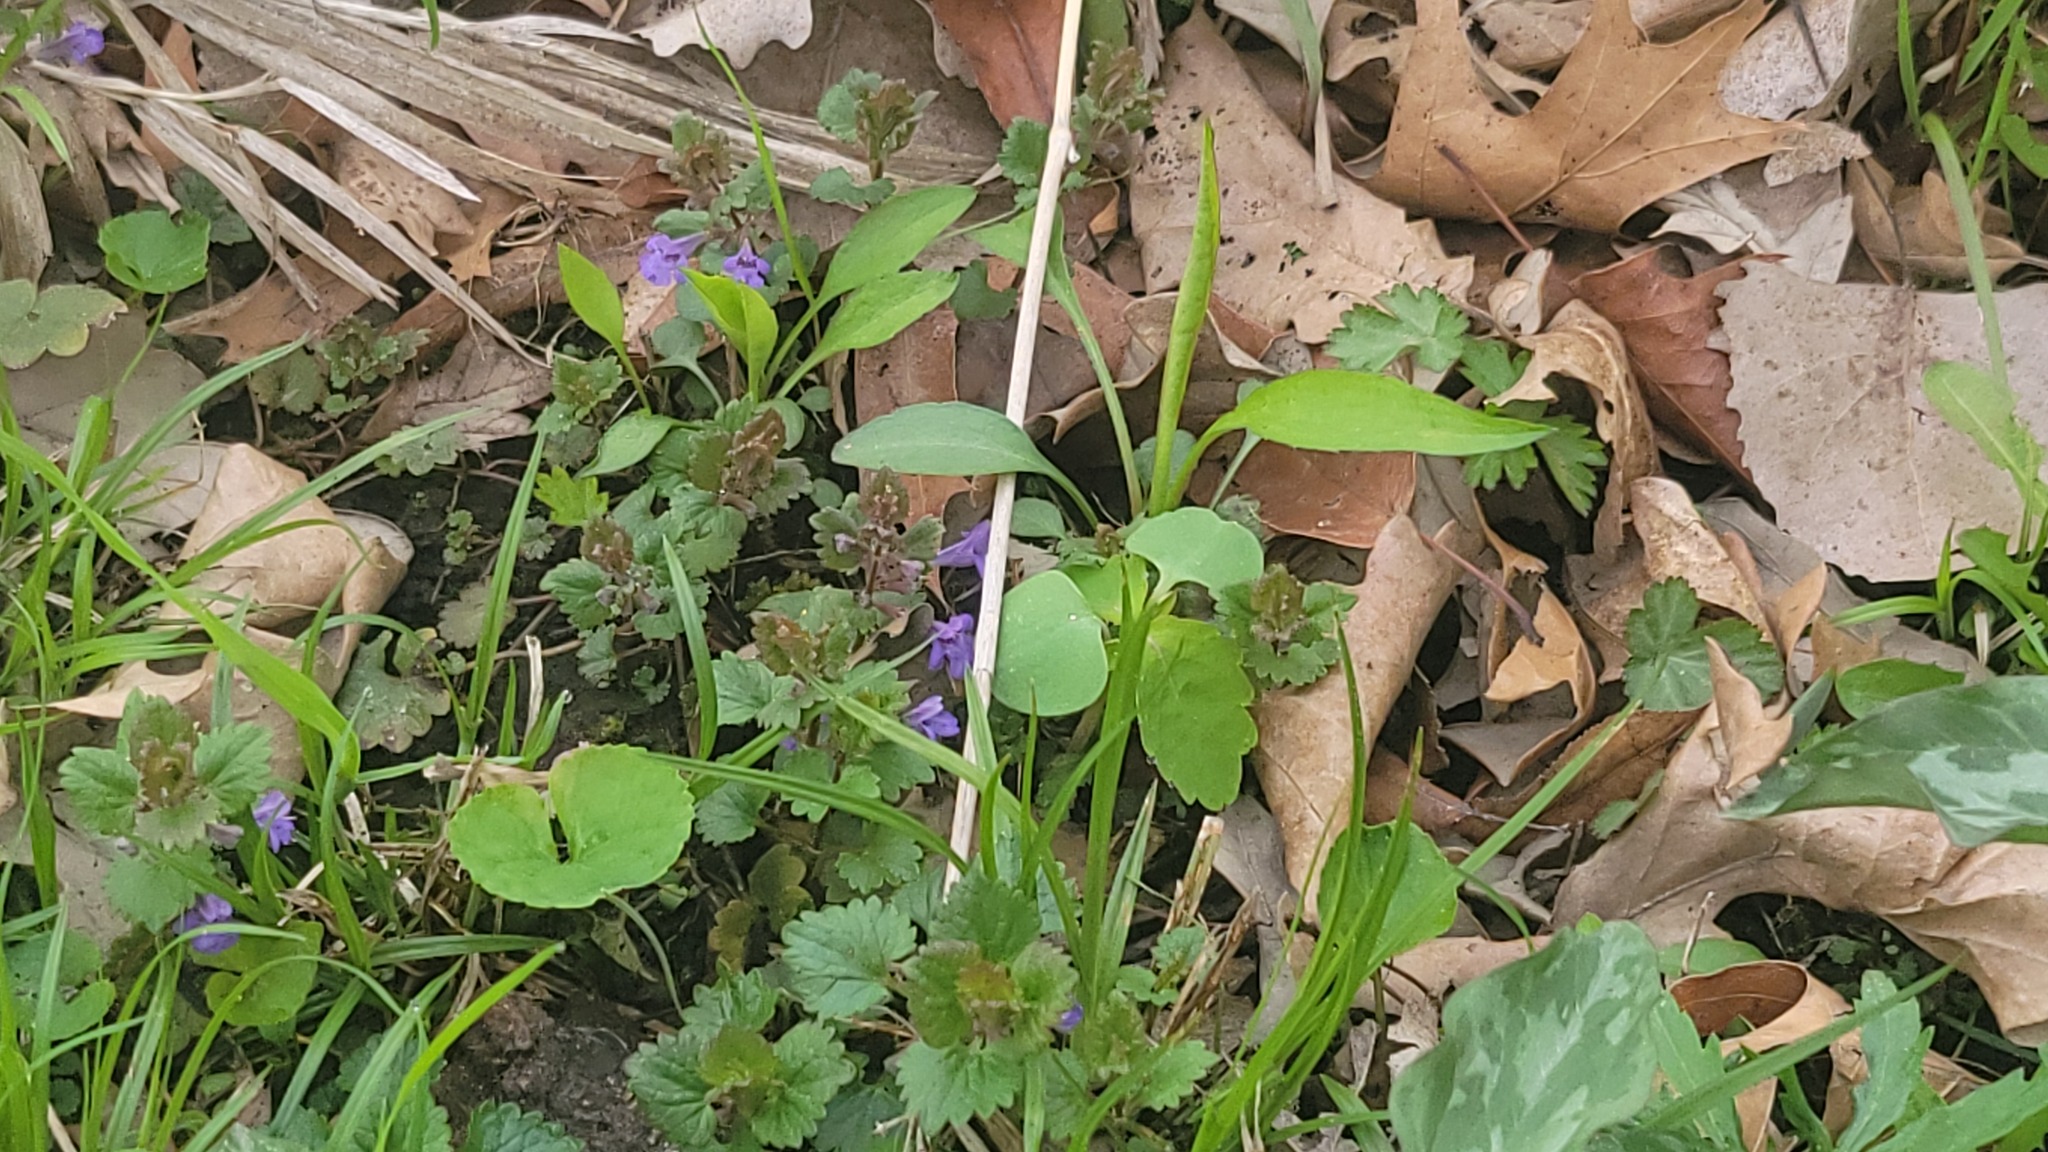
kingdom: Plantae
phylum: Tracheophyta
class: Magnoliopsida
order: Lamiales
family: Lamiaceae
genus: Glechoma
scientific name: Glechoma hederacea
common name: Ground ivy
